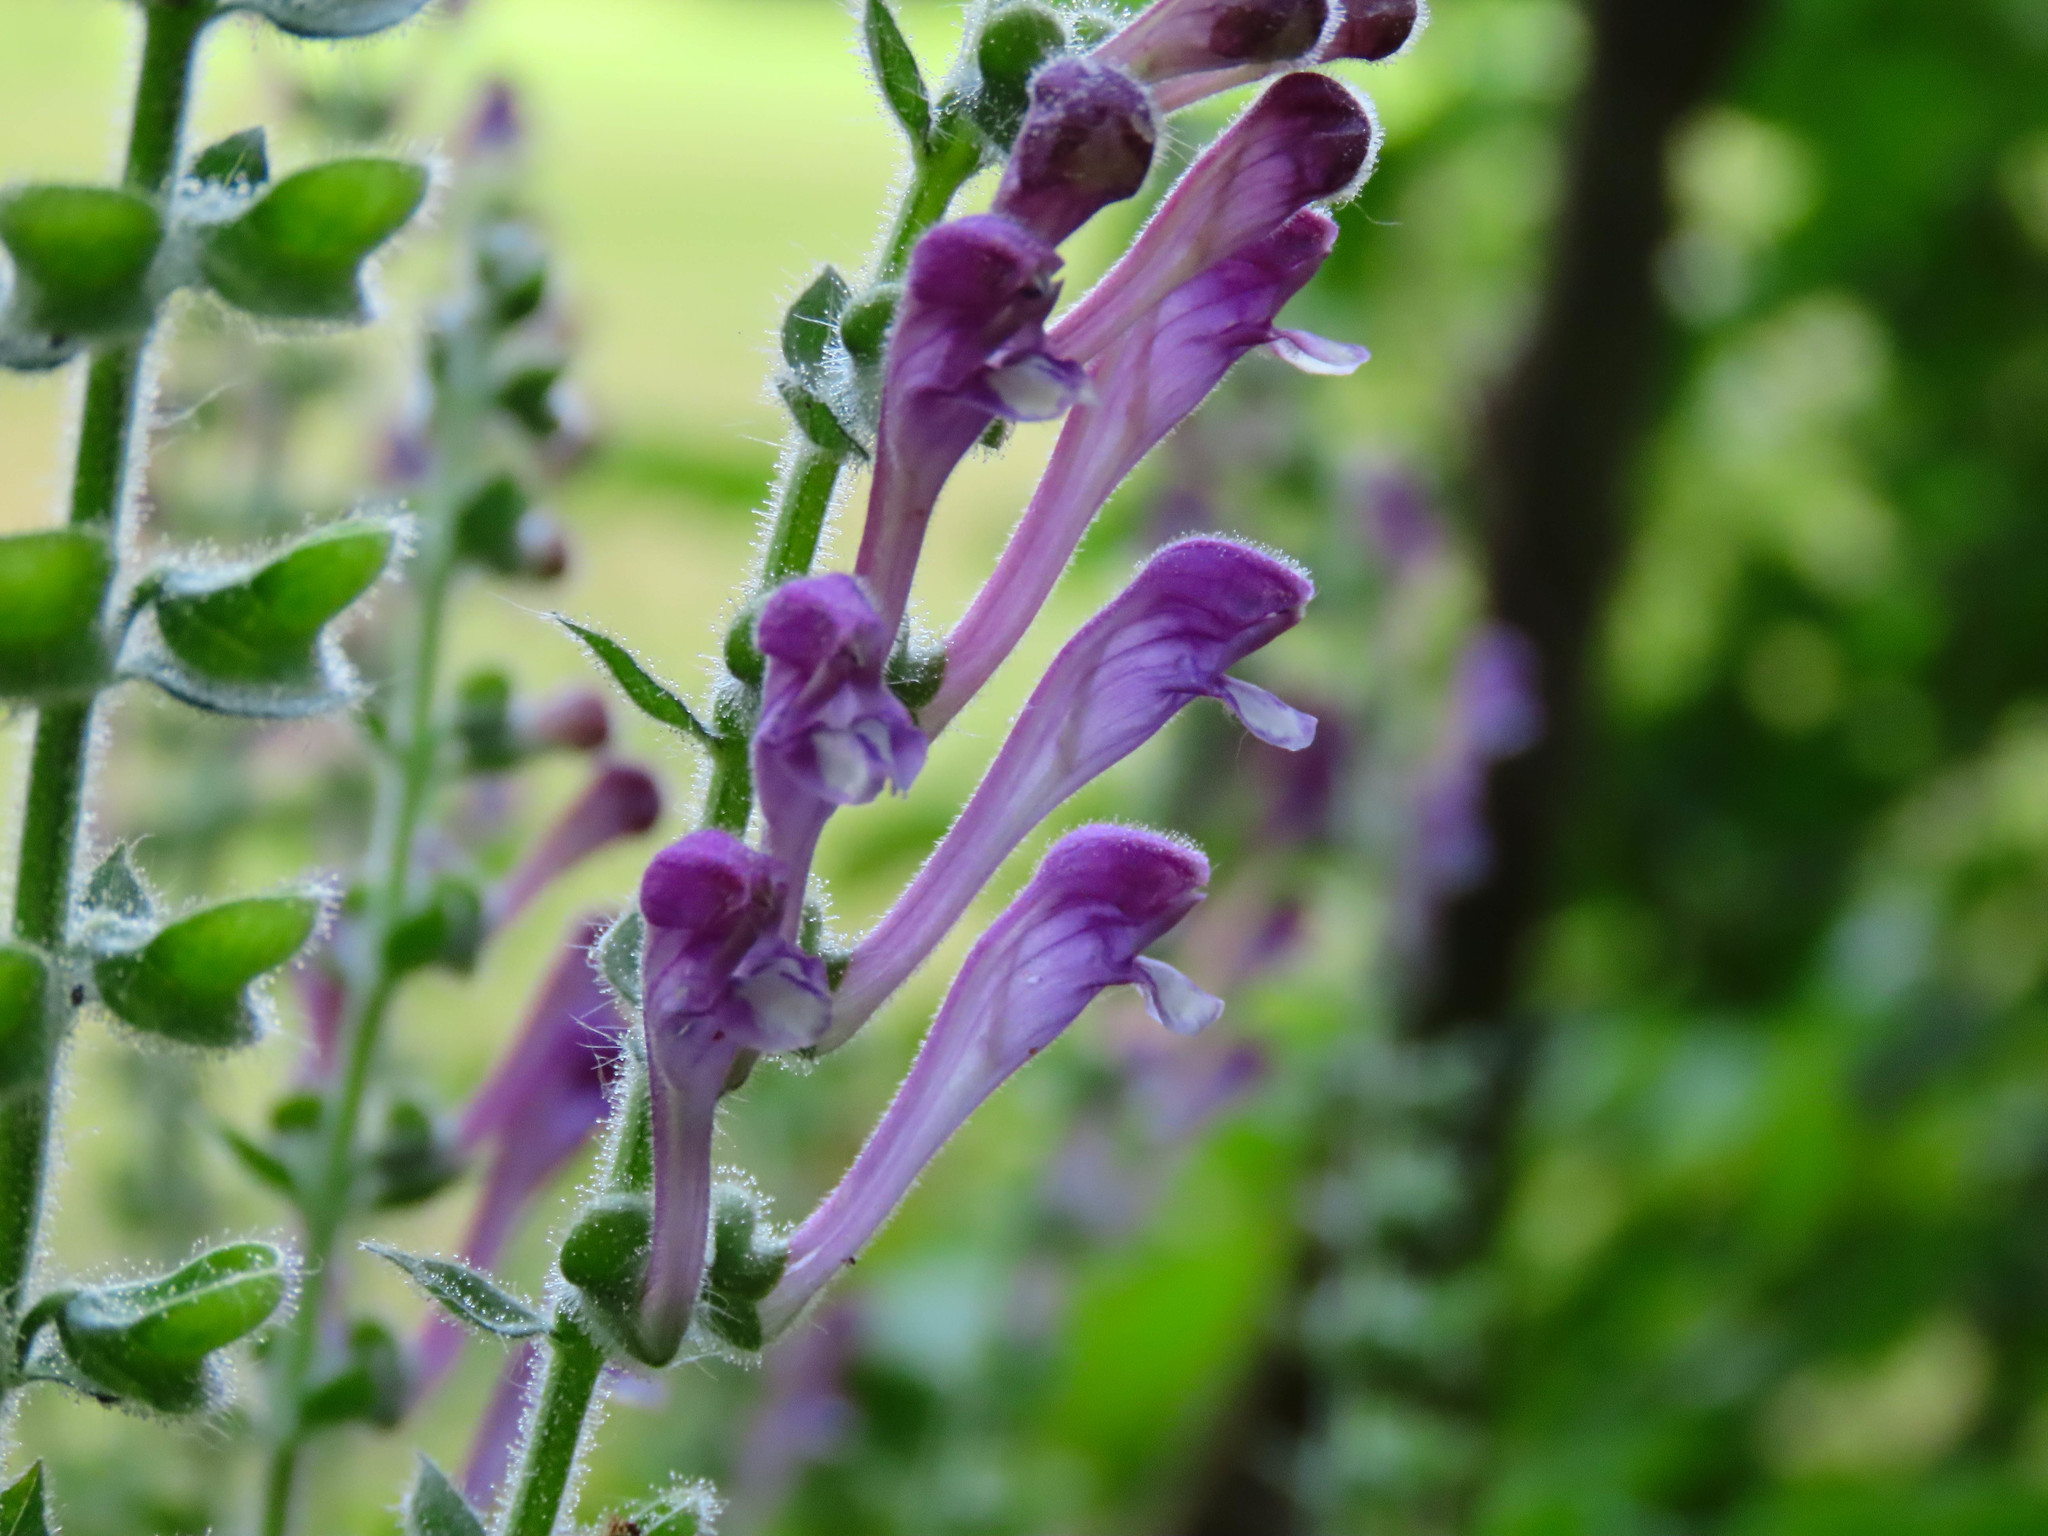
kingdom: Plantae
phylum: Tracheophyta
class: Magnoliopsida
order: Lamiales
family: Lamiaceae
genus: Scutellaria
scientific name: Scutellaria columnae
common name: Large skullcap
